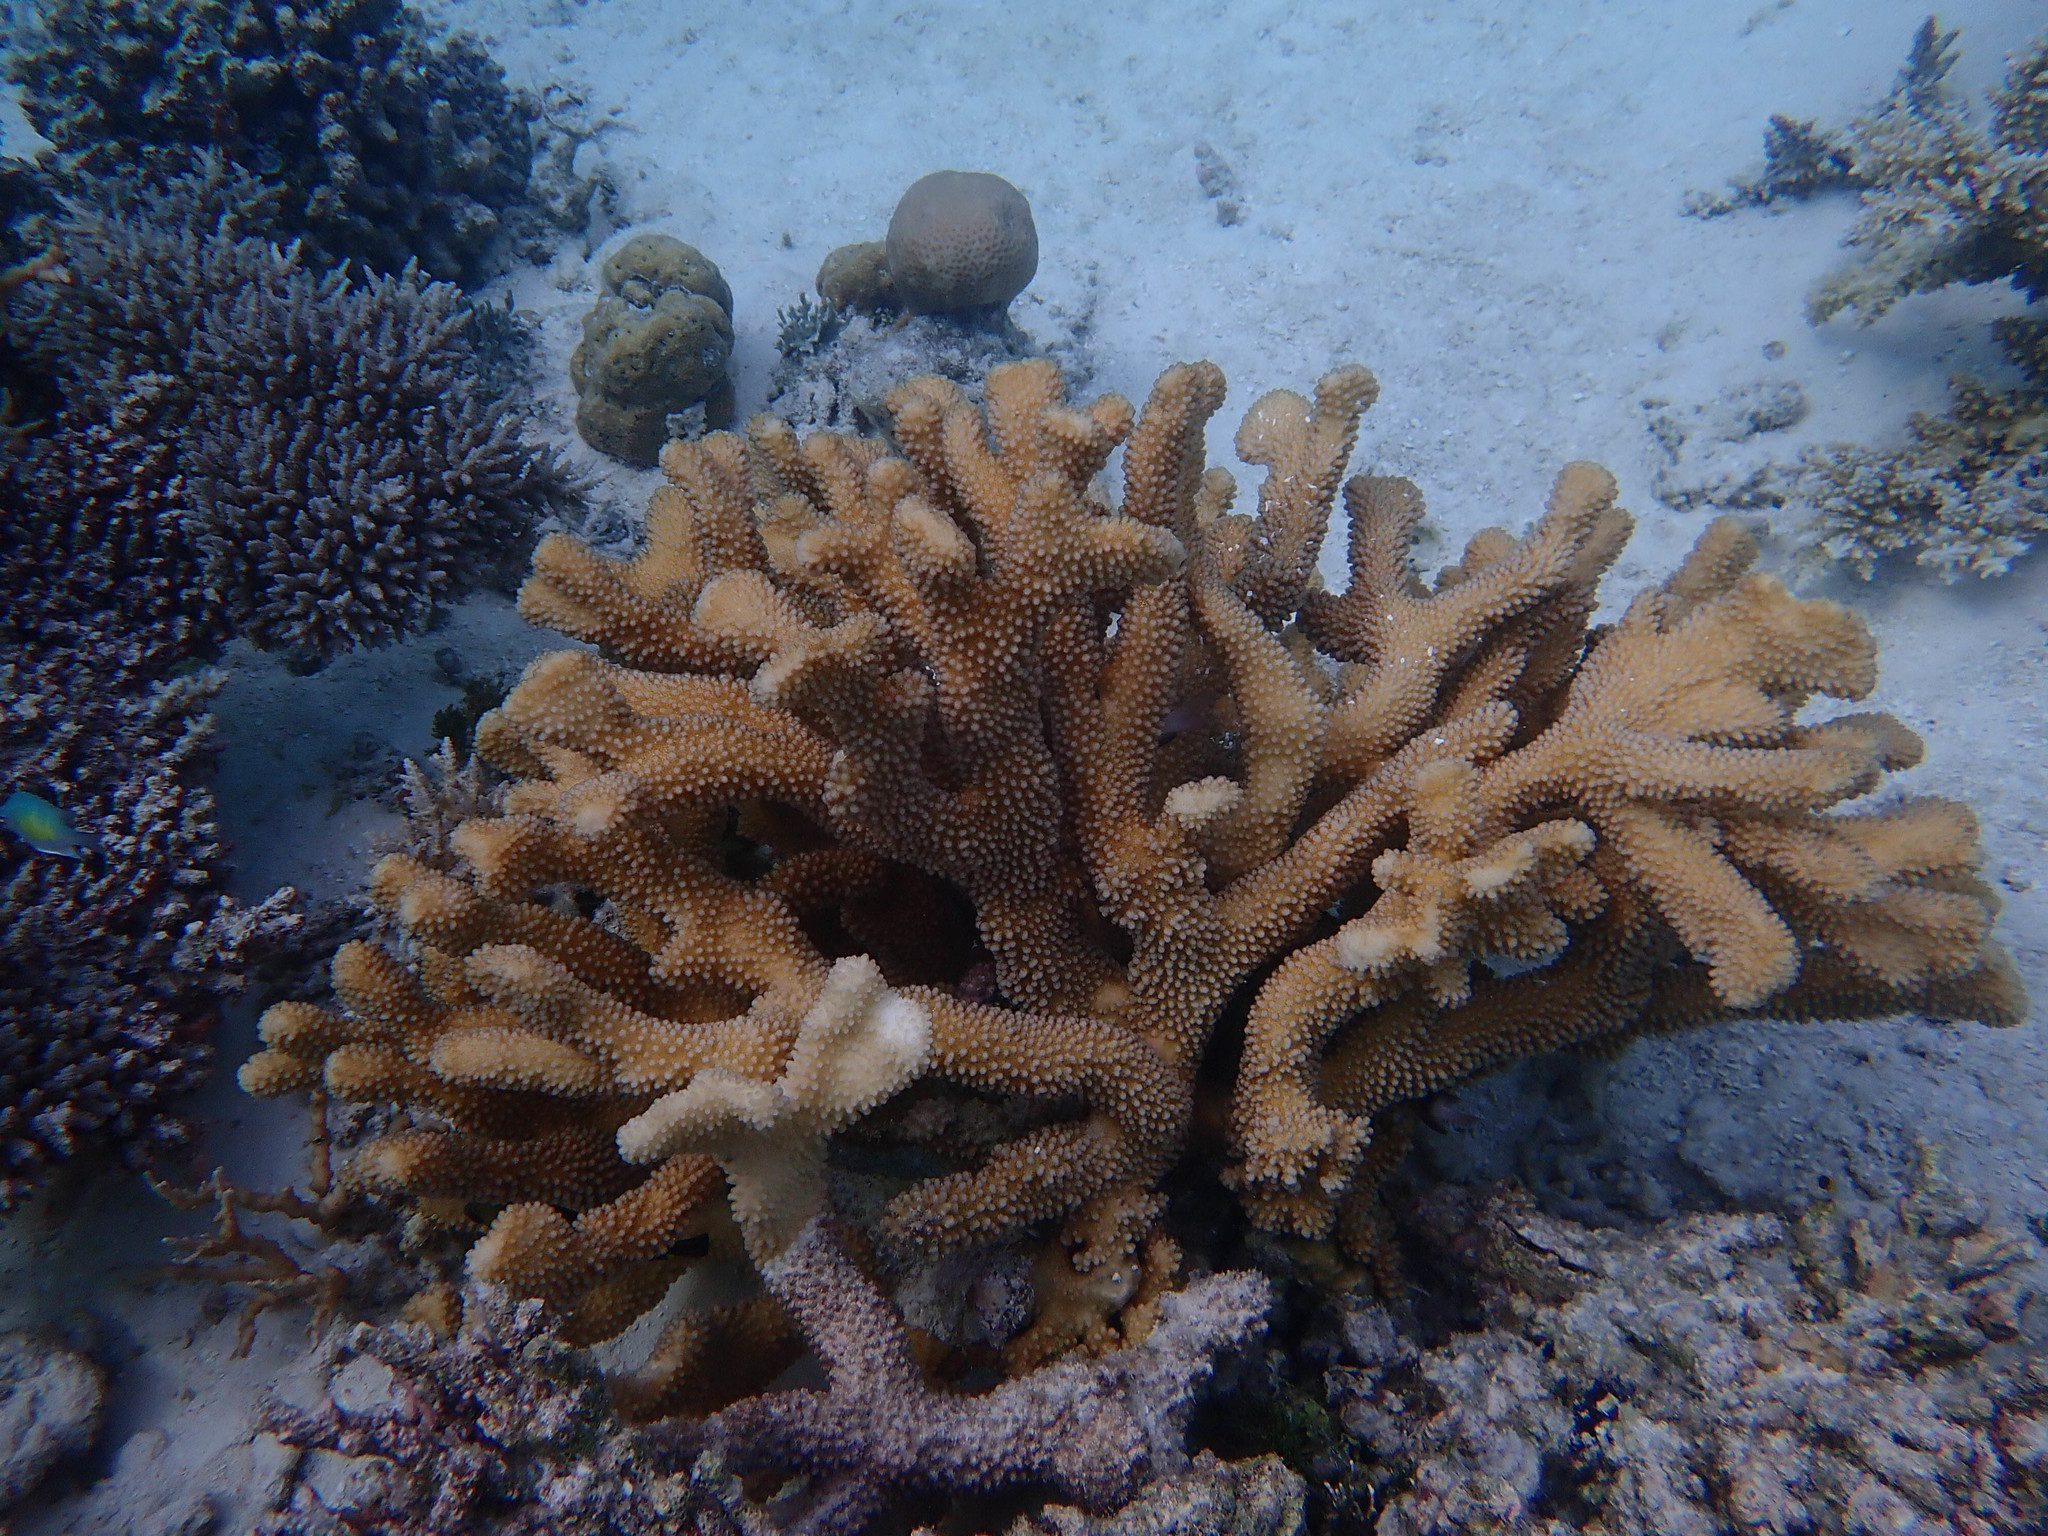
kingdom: Animalia
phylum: Cnidaria
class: Anthozoa
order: Scleractinia
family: Pocilloporidae
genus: Pocillopora
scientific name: Pocillopora grandis
